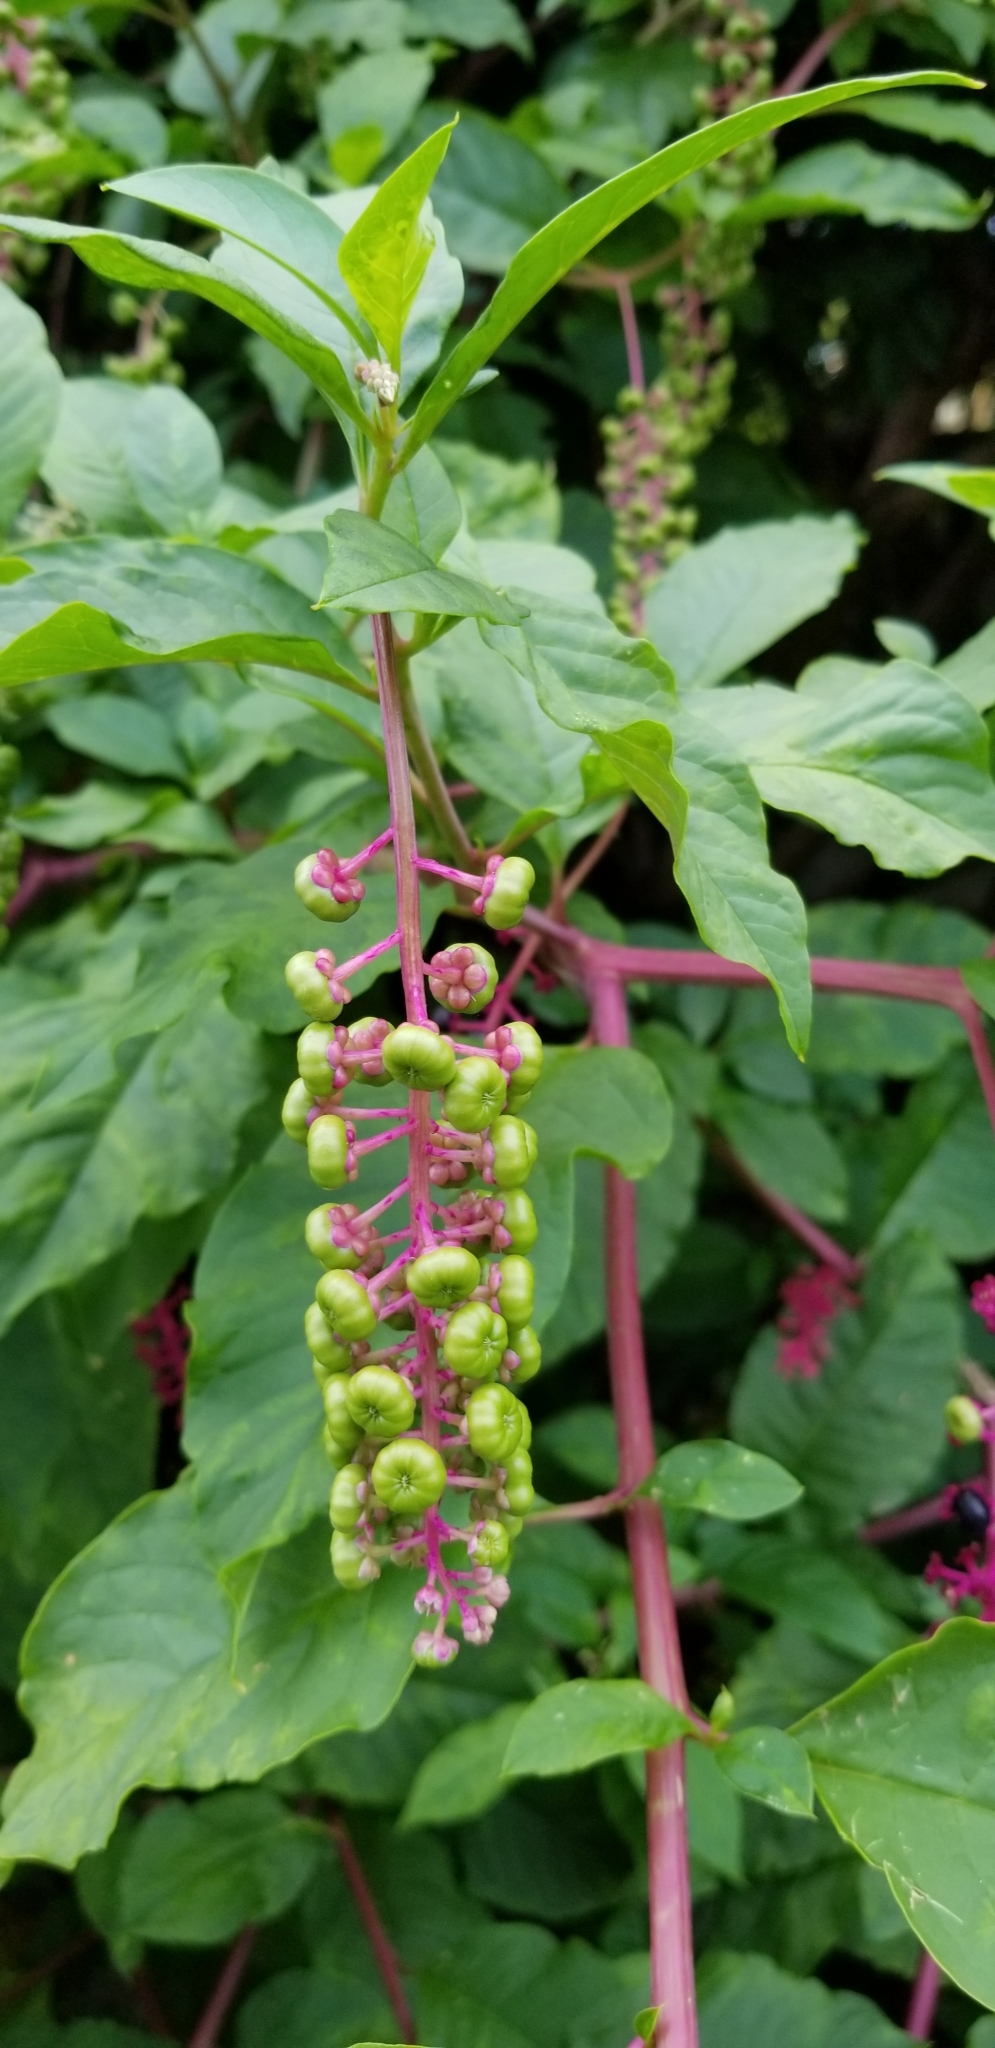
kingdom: Plantae
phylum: Tracheophyta
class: Magnoliopsida
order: Caryophyllales
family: Phytolaccaceae
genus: Phytolacca
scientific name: Phytolacca americana
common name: American pokeweed
